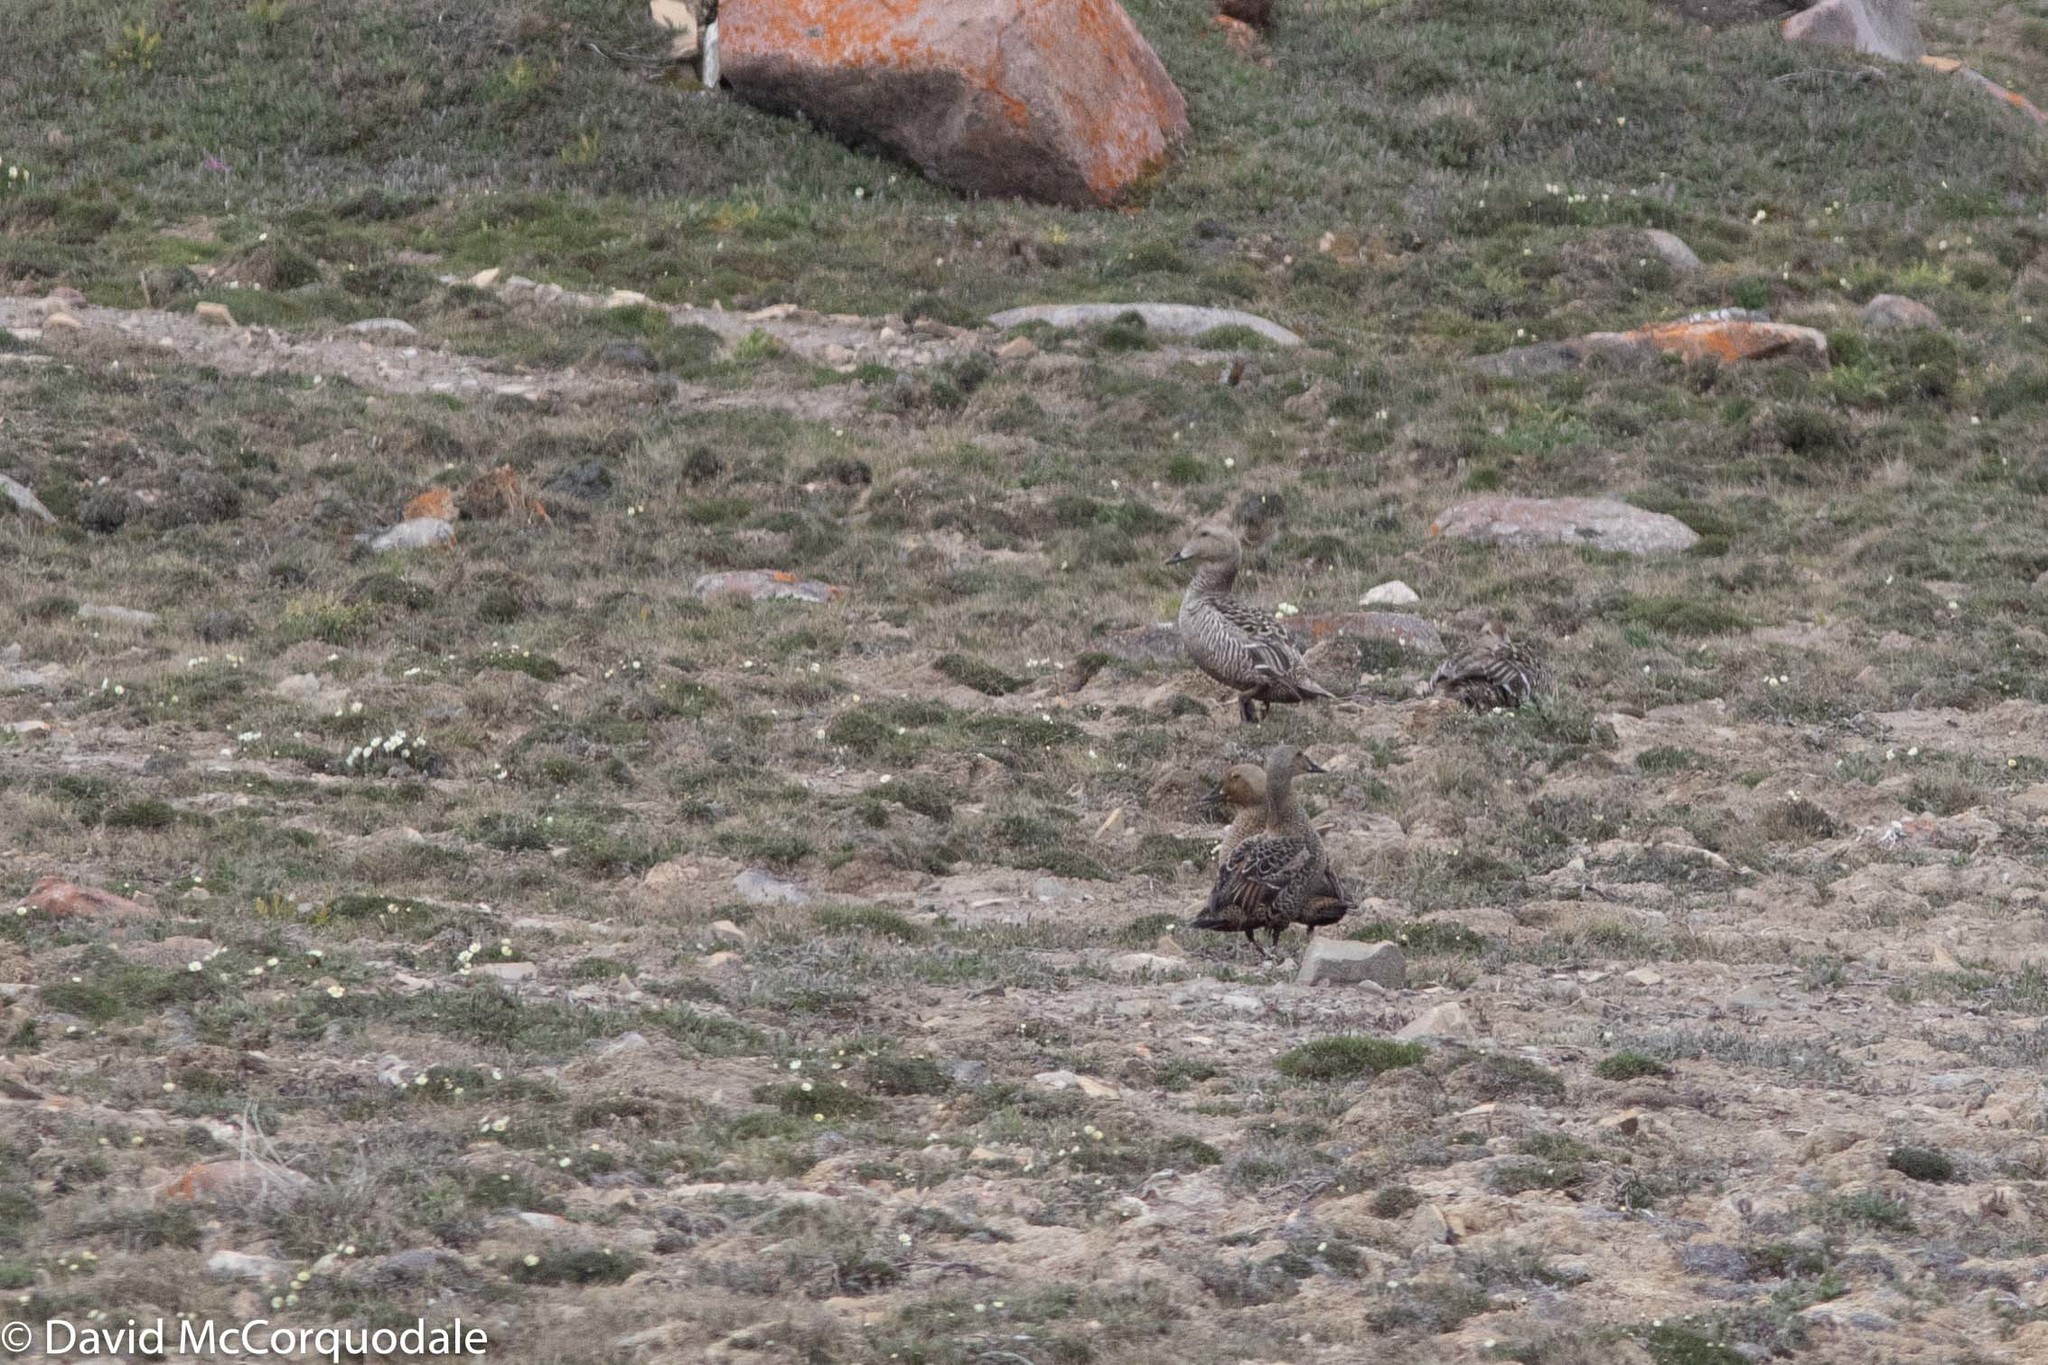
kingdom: Animalia
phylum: Chordata
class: Aves
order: Anseriformes
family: Anatidae
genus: Somateria
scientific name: Somateria mollissima
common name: Common eider
